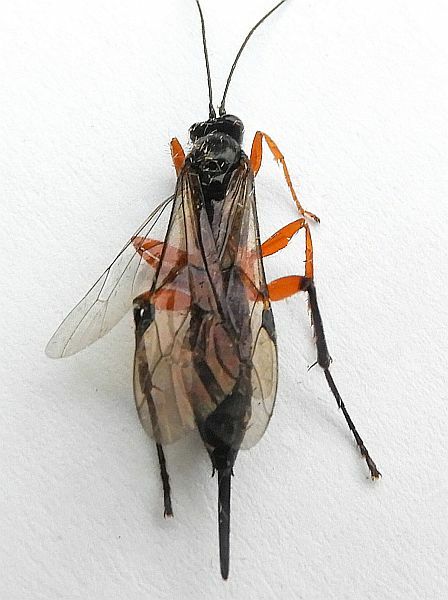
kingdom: Animalia
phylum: Arthropoda
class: Insecta
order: Hymenoptera
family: Ichneumonidae
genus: Pimpla
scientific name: Pimpla pedalis
